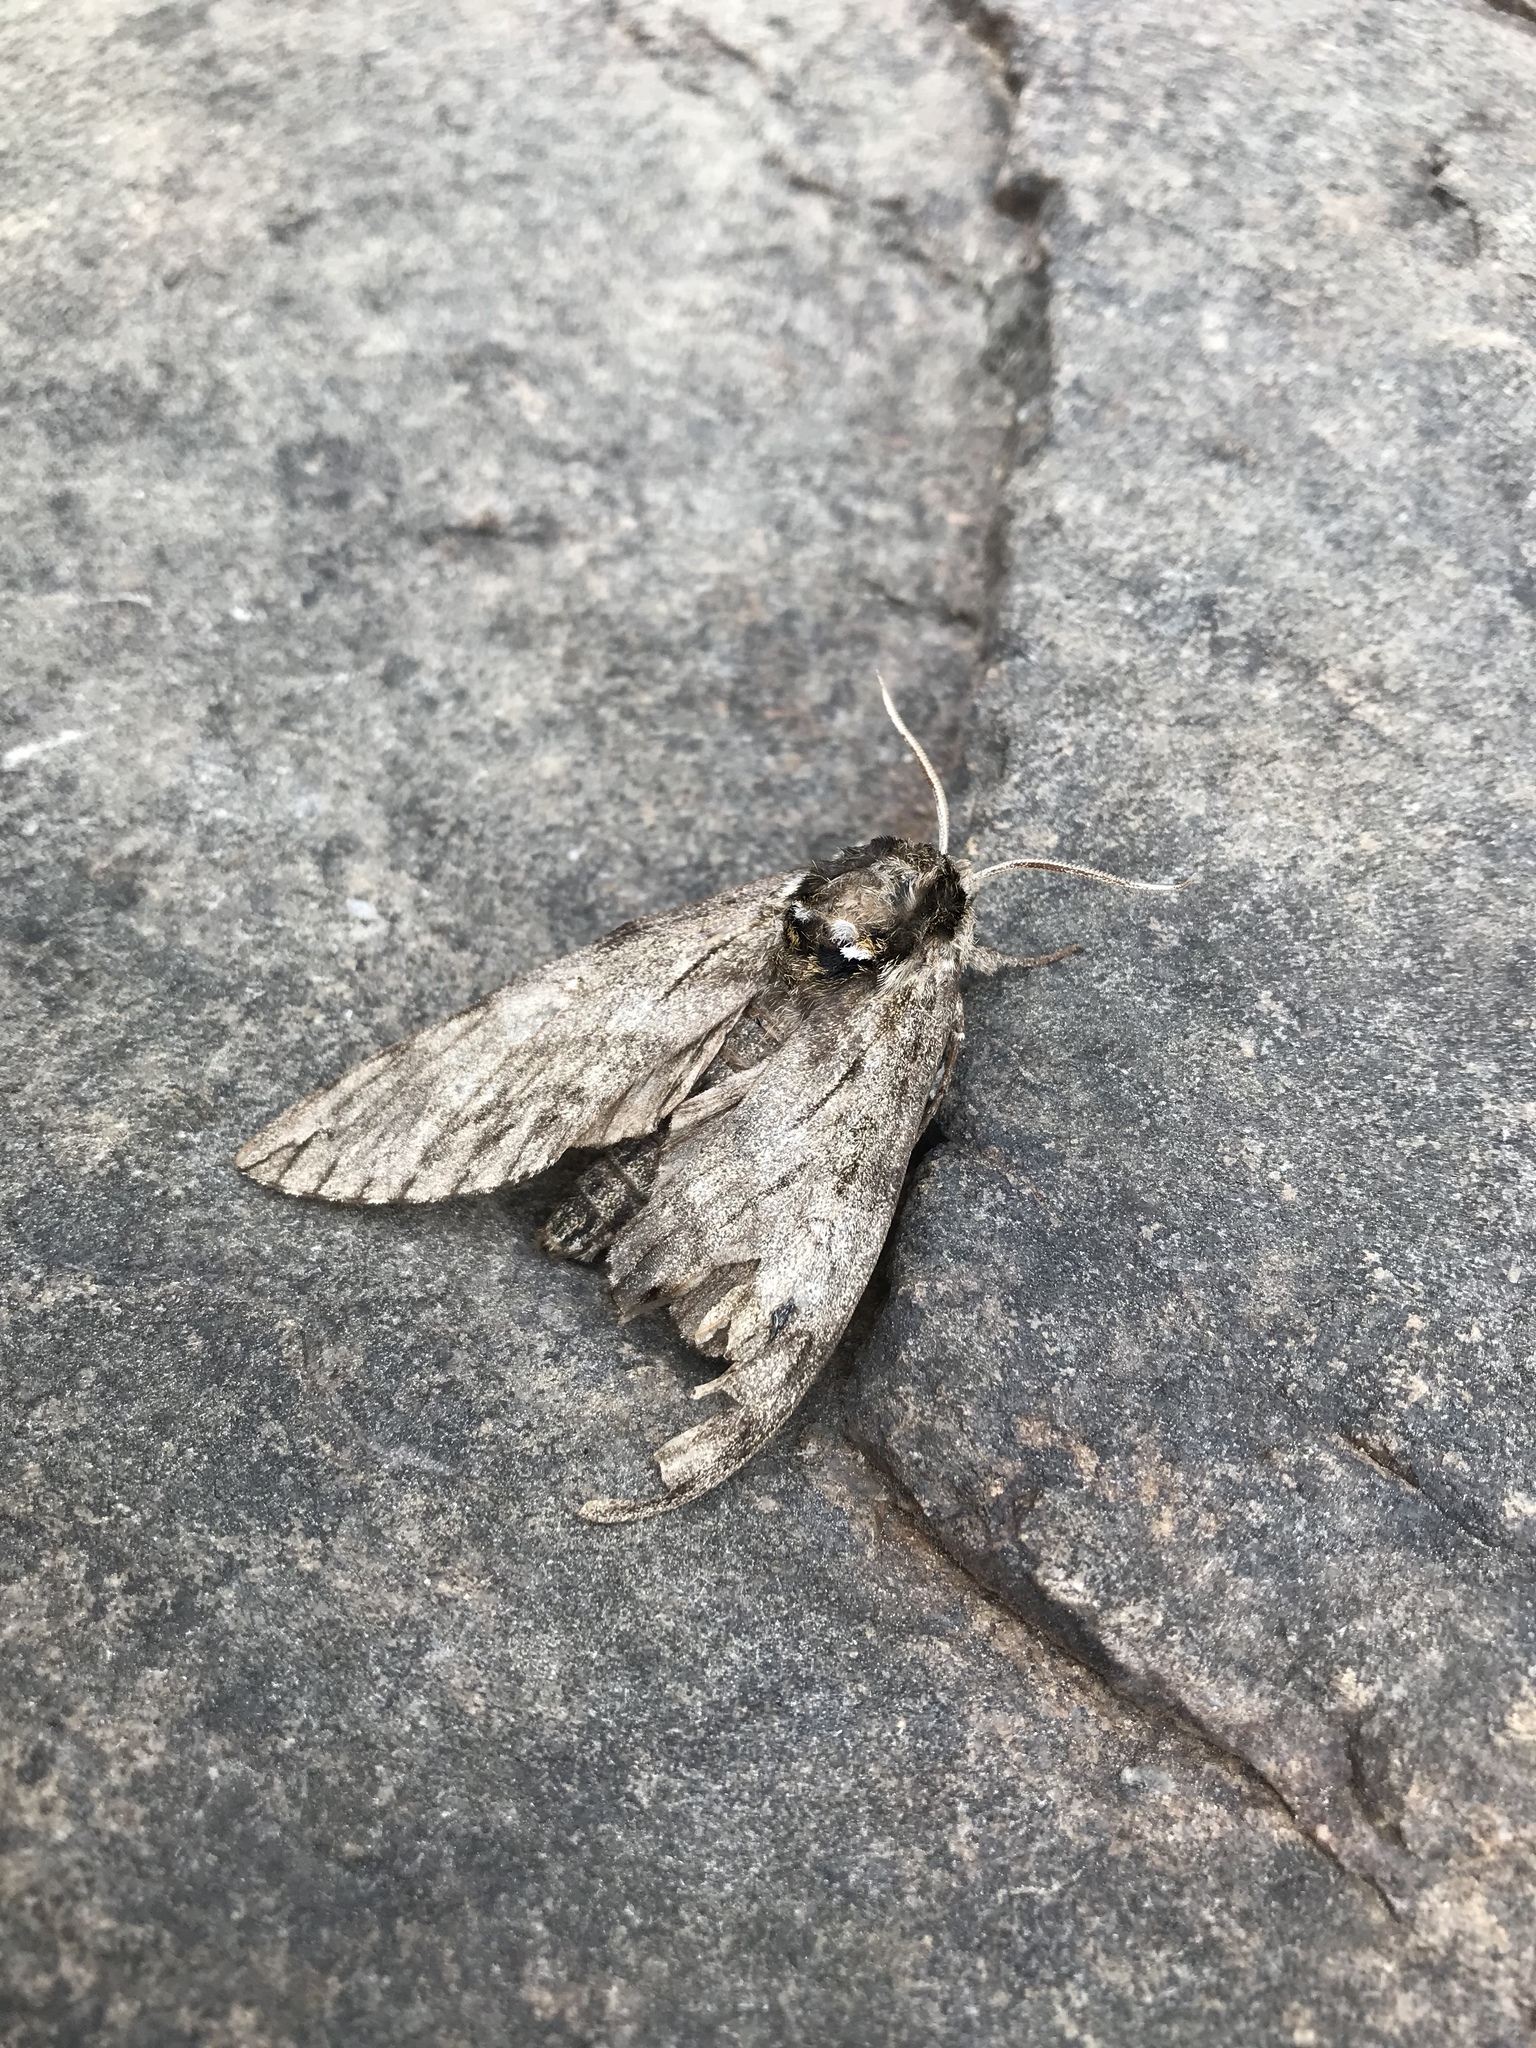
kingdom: Animalia
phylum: Arthropoda
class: Insecta
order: Lepidoptera
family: Sphingidae
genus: Ceratomia
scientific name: Ceratomia undulosa
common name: Waved sphinx
